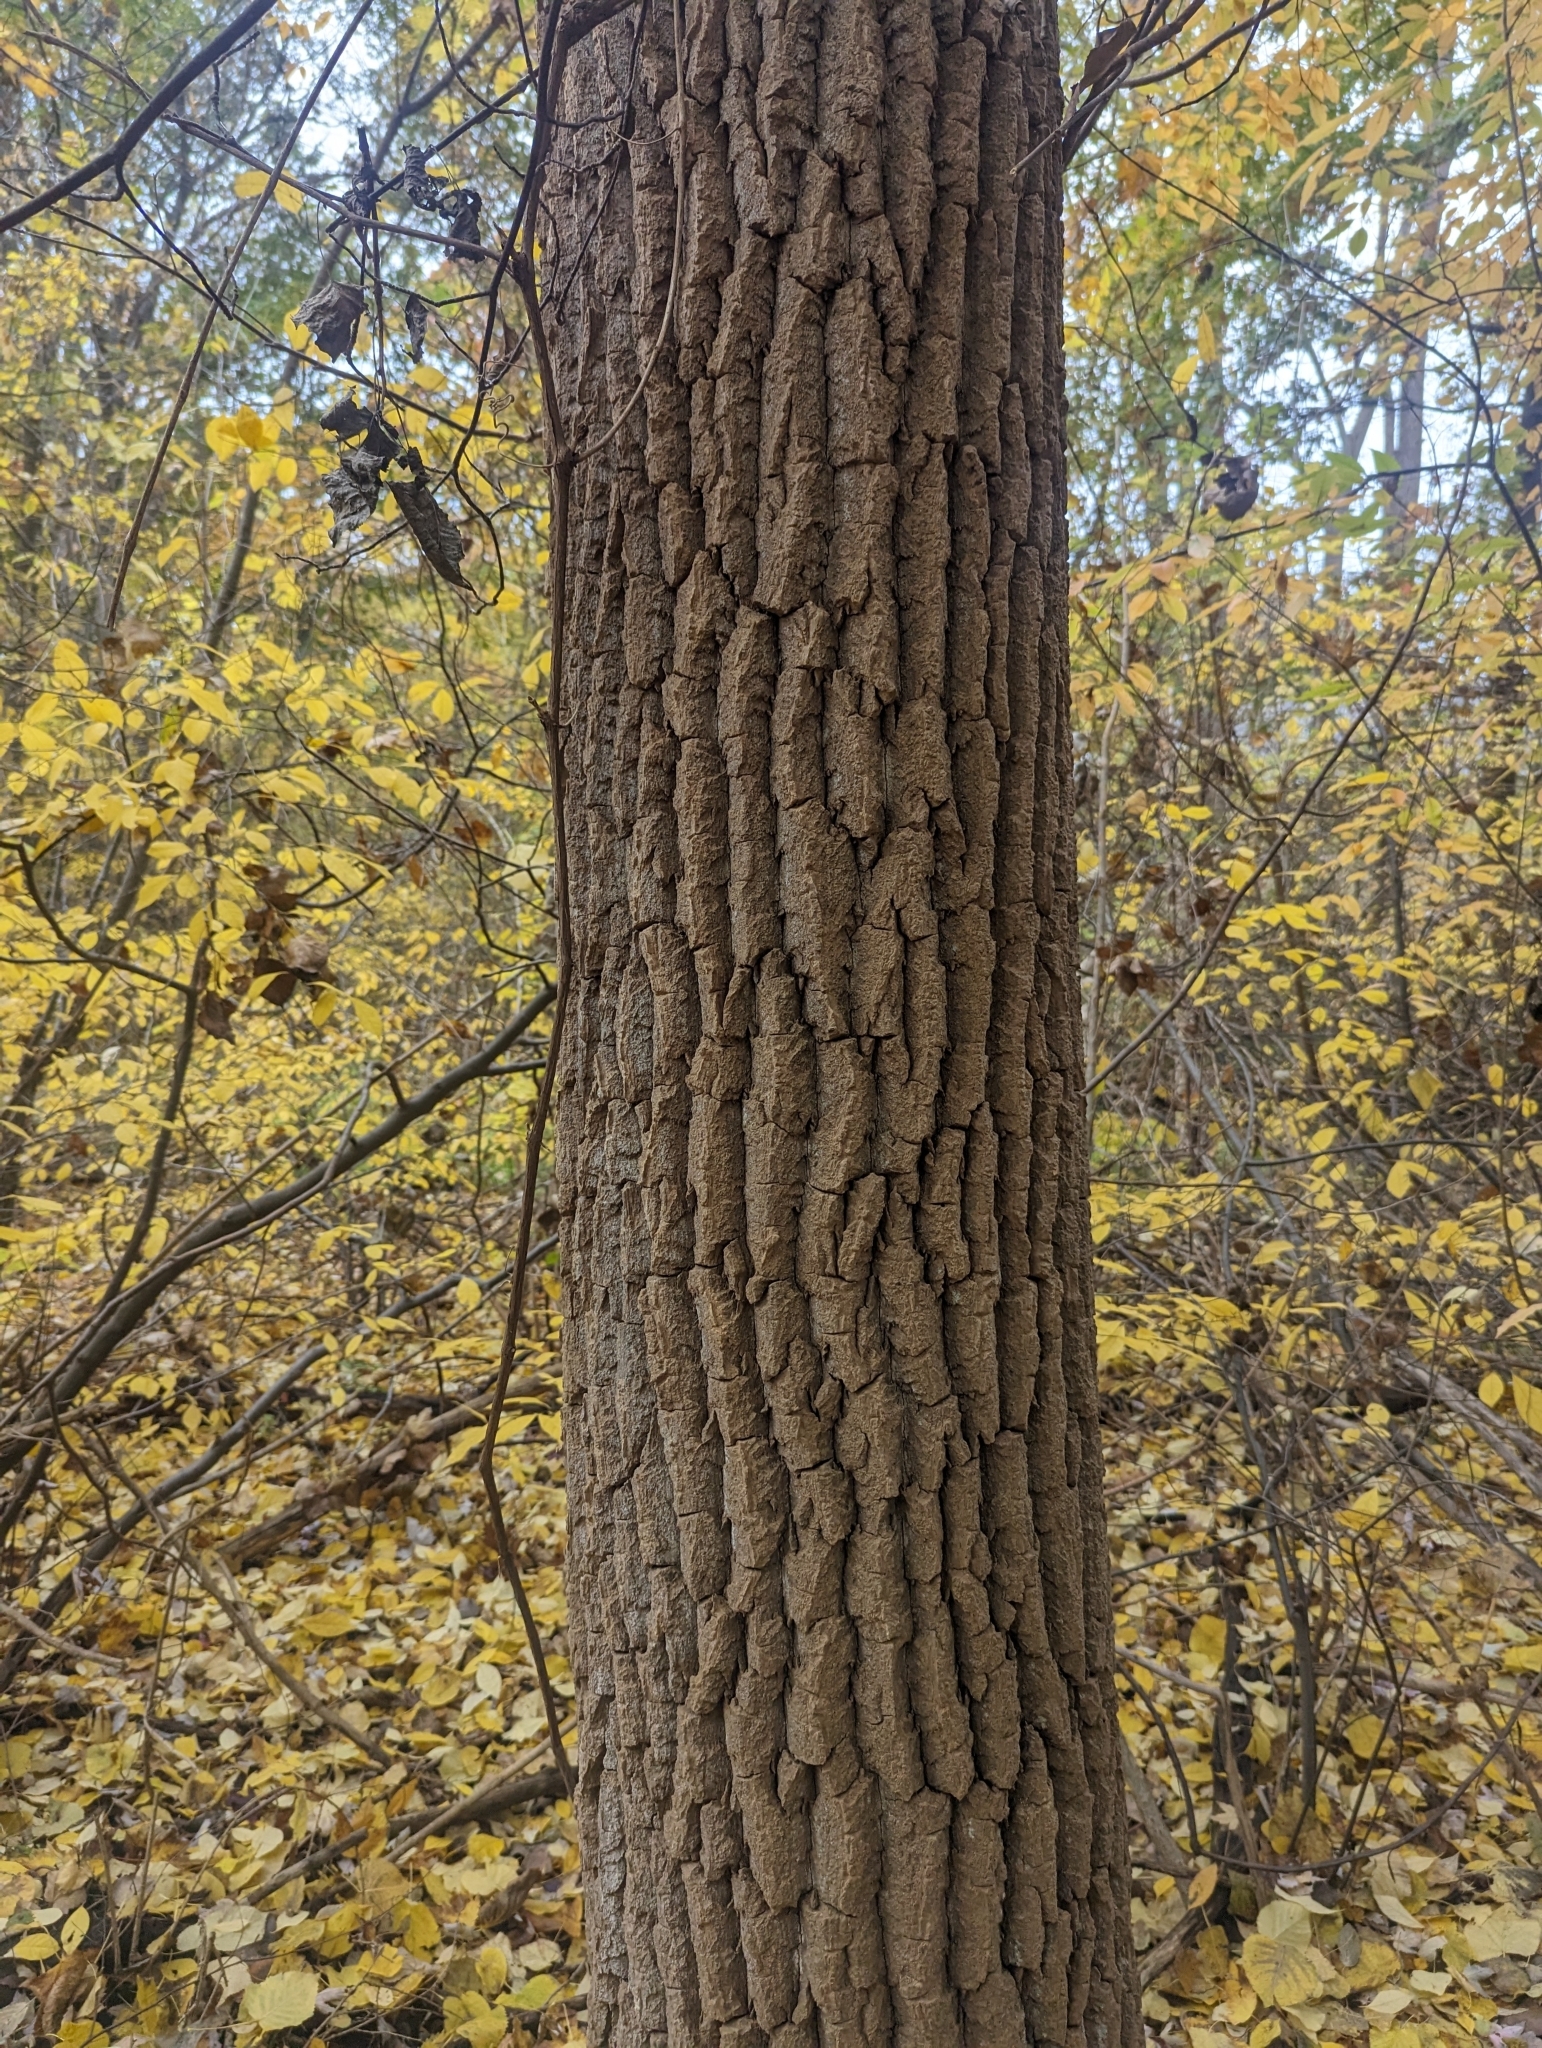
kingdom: Plantae
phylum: Tracheophyta
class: Magnoliopsida
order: Malpighiales
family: Salicaceae
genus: Populus
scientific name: Populus deltoides
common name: Eastern cottonwood
